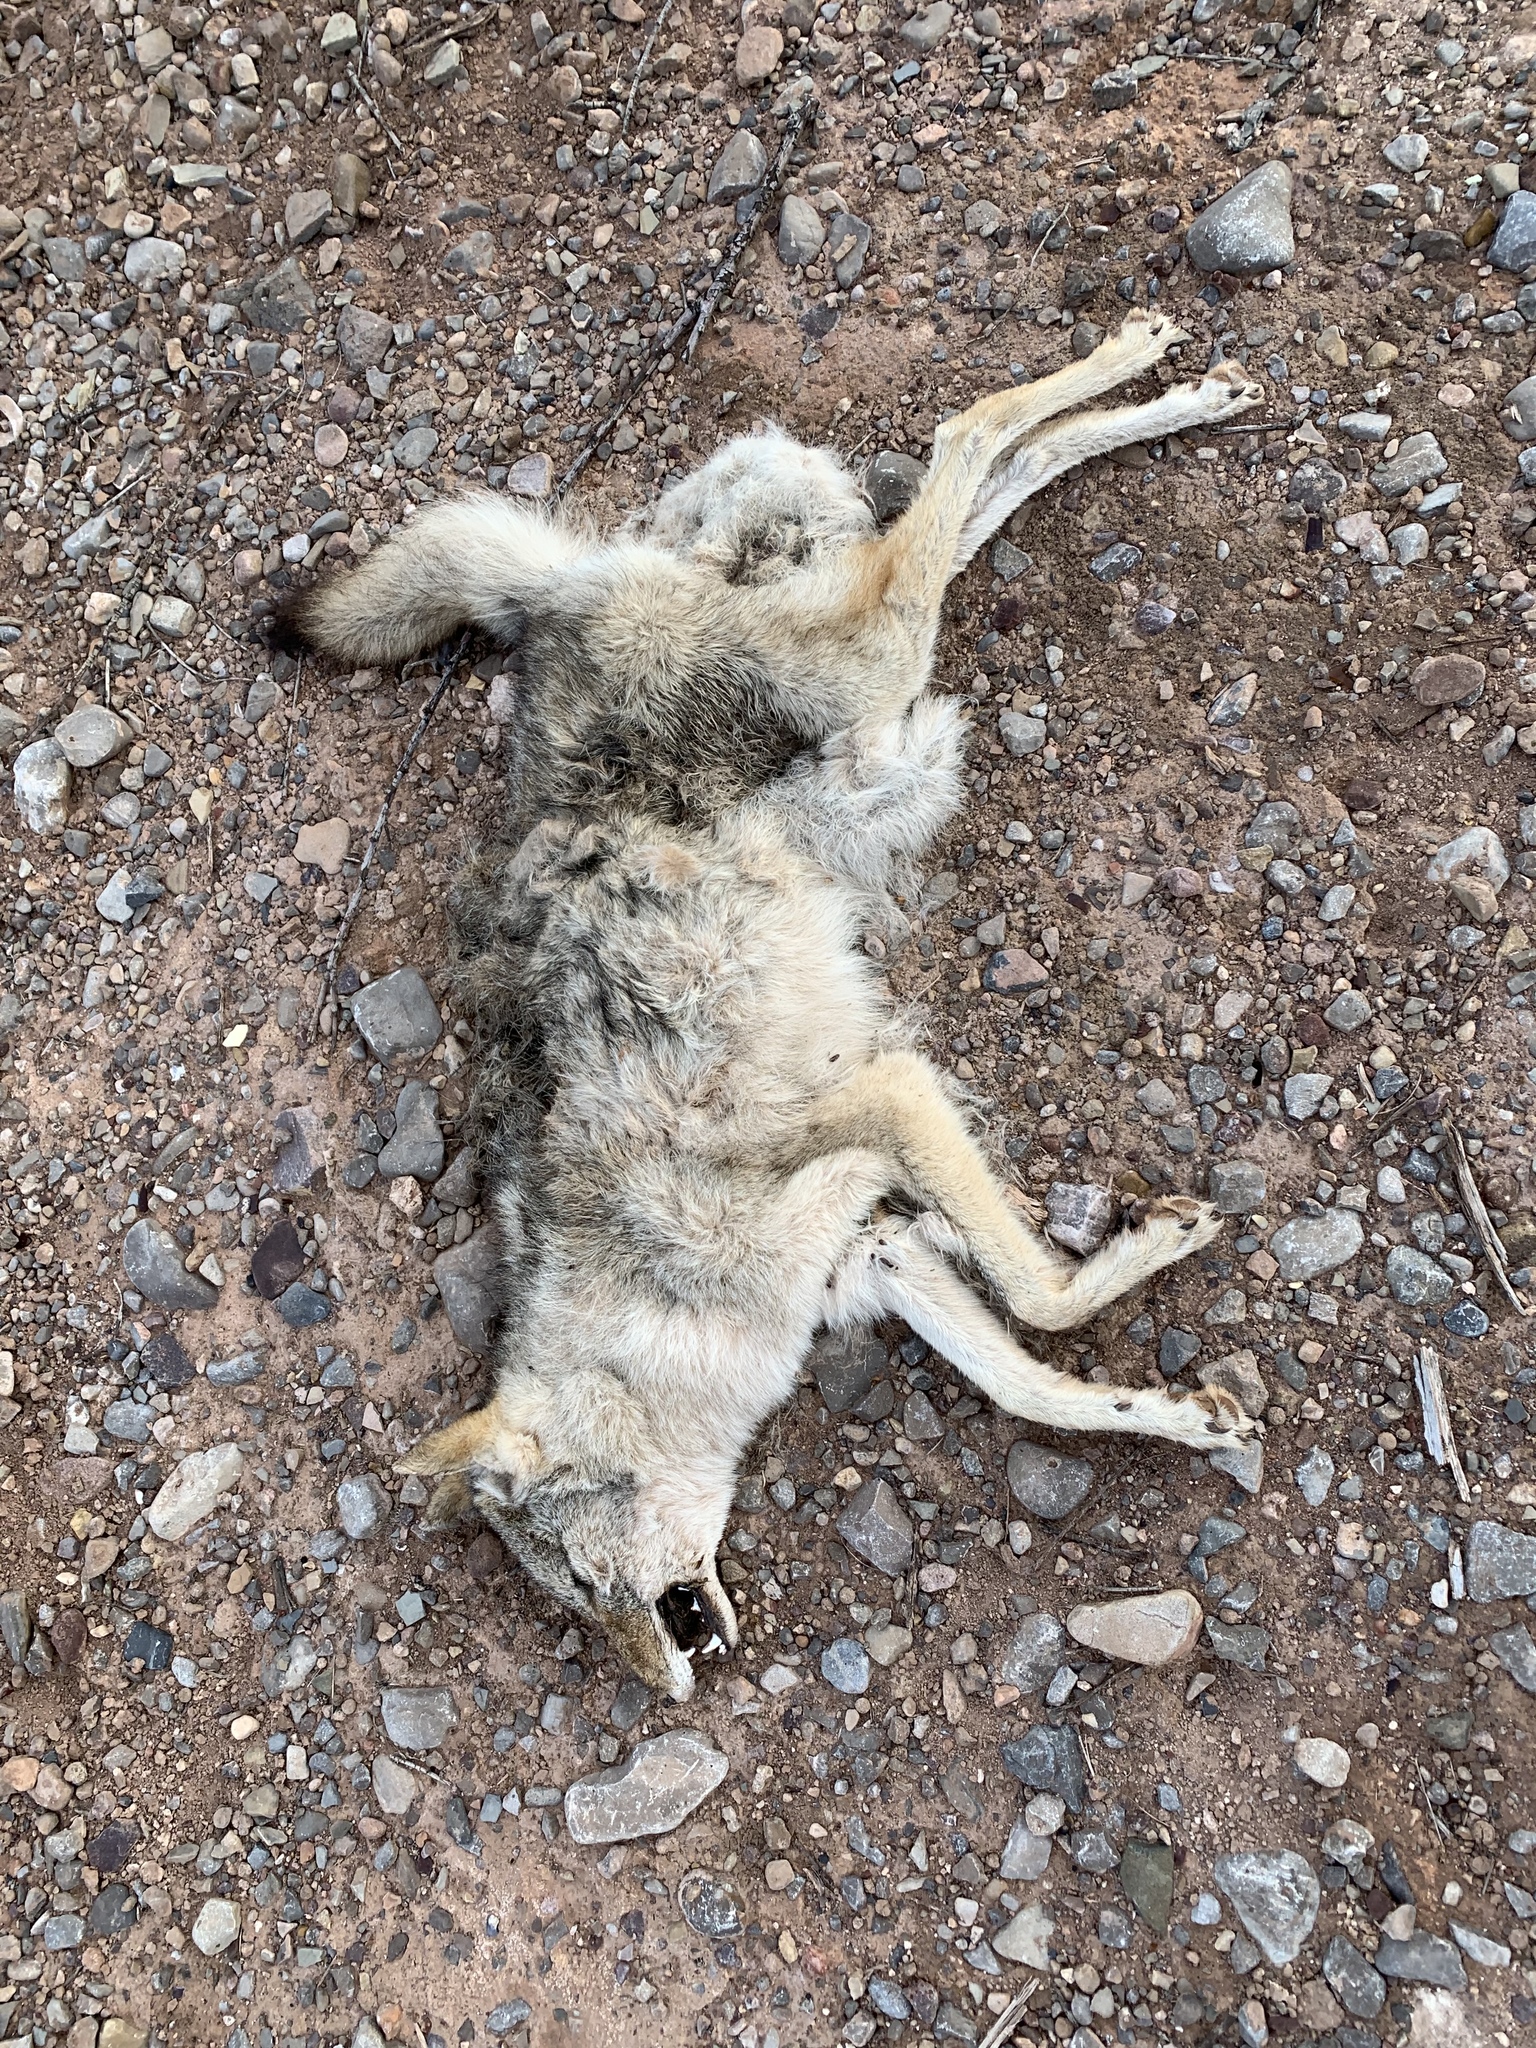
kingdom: Animalia
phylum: Chordata
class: Mammalia
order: Carnivora
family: Canidae
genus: Canis
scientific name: Canis latrans
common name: Coyote
